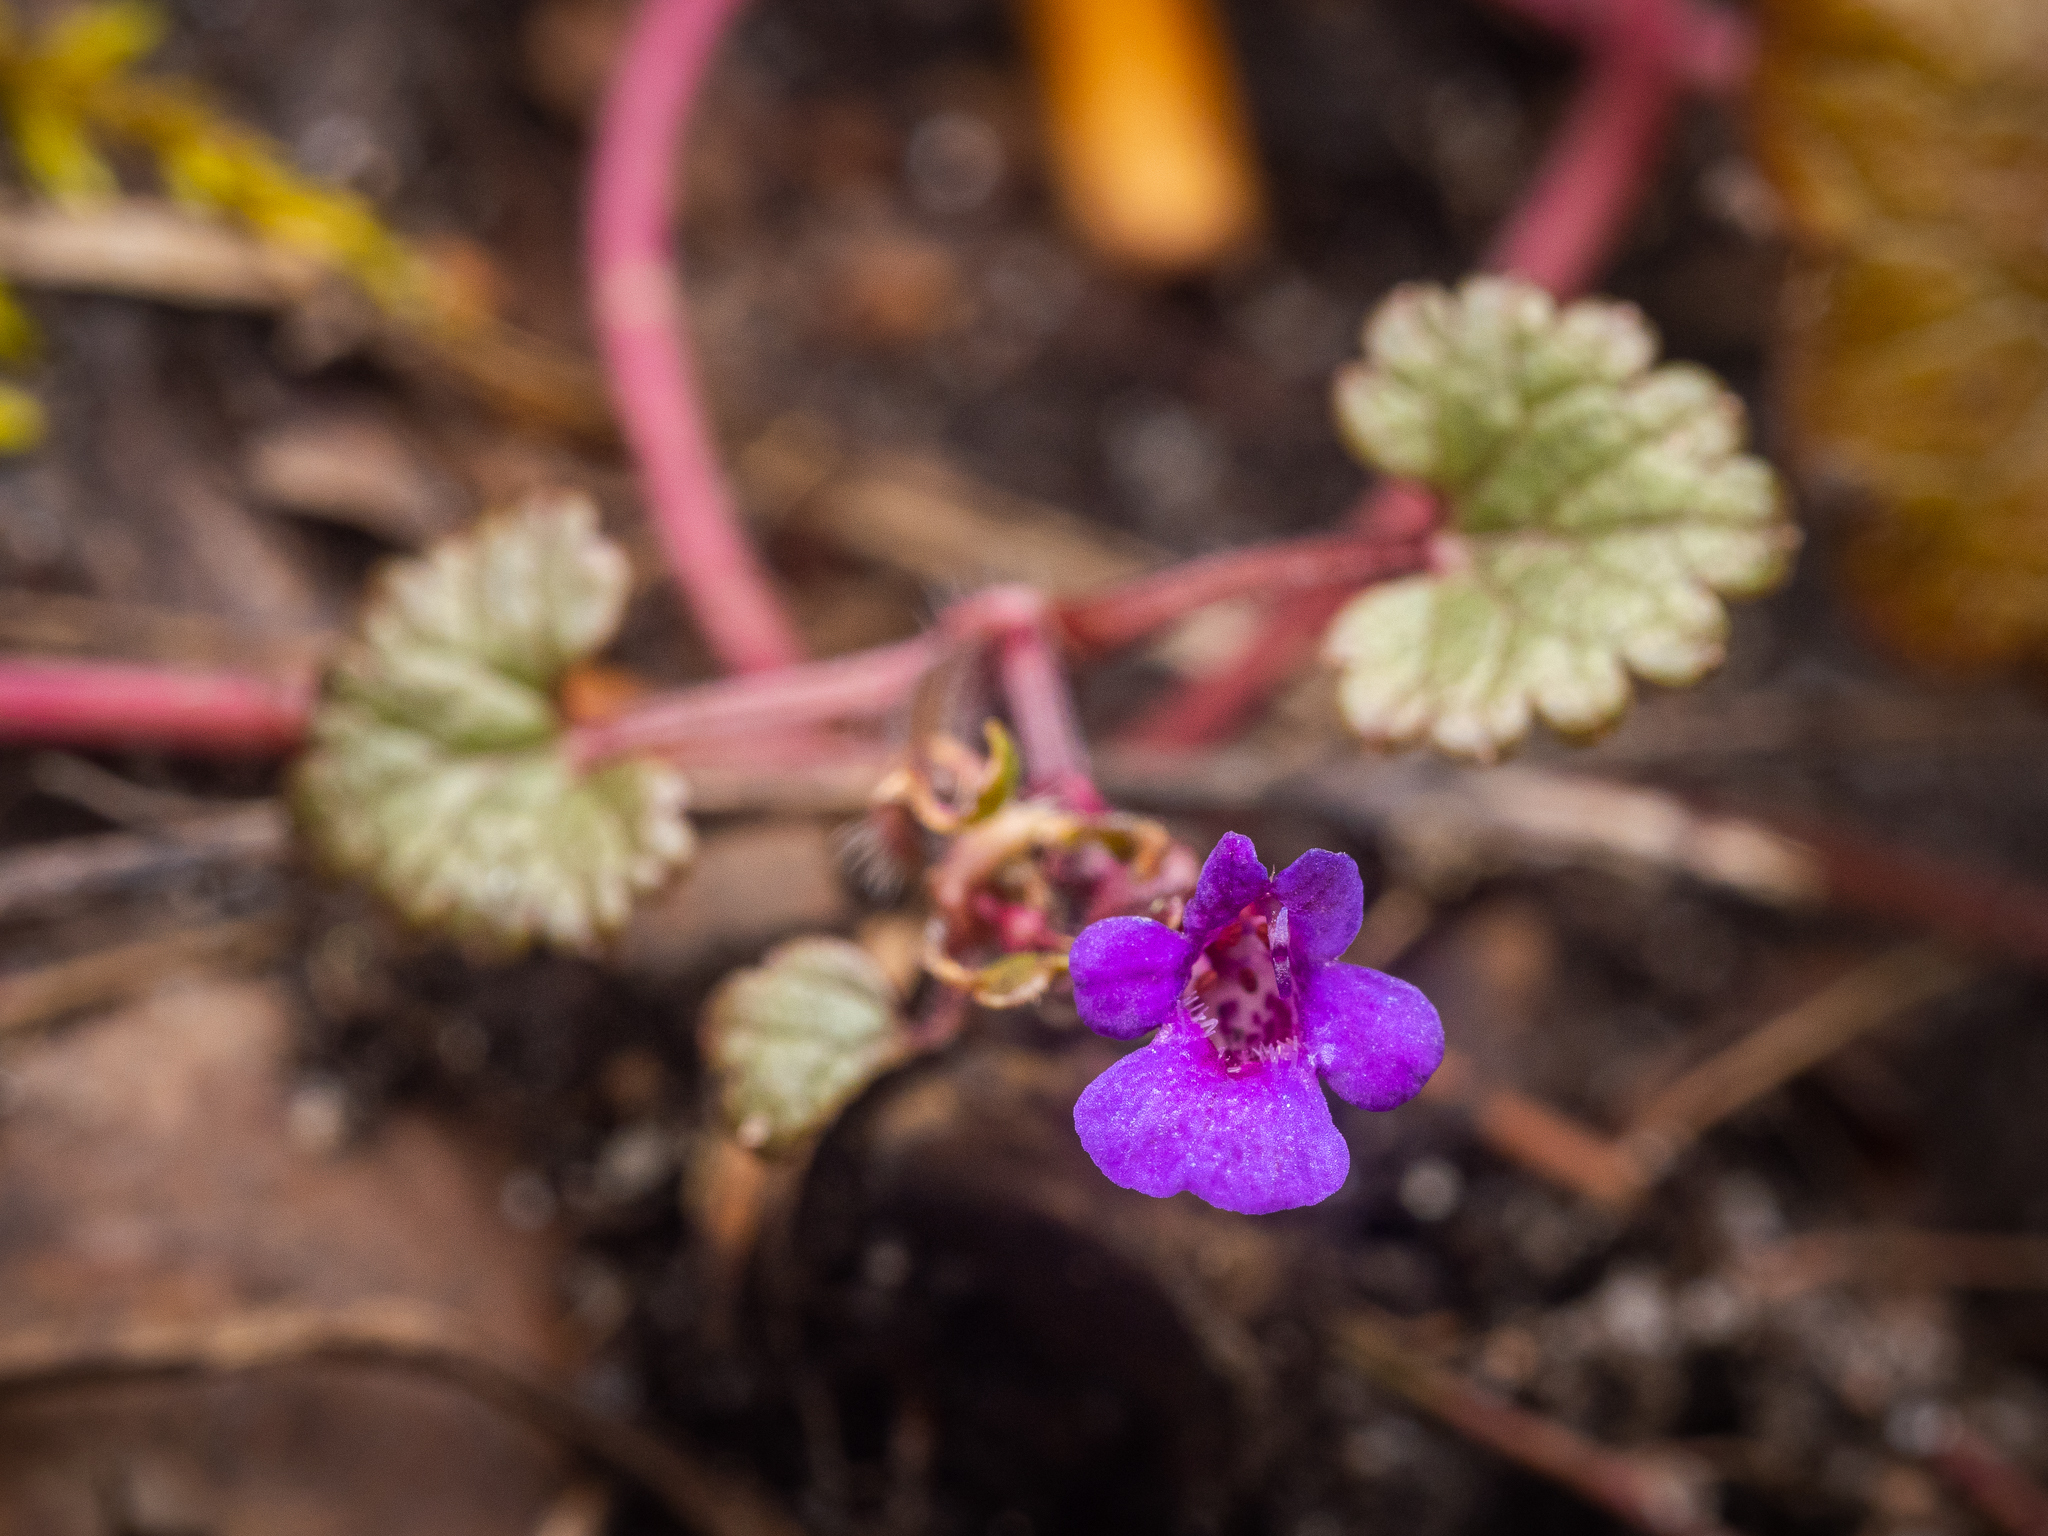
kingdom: Plantae
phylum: Tracheophyta
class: Magnoliopsida
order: Lamiales
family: Lamiaceae
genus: Glechoma
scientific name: Glechoma hederacea
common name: Ground ivy
